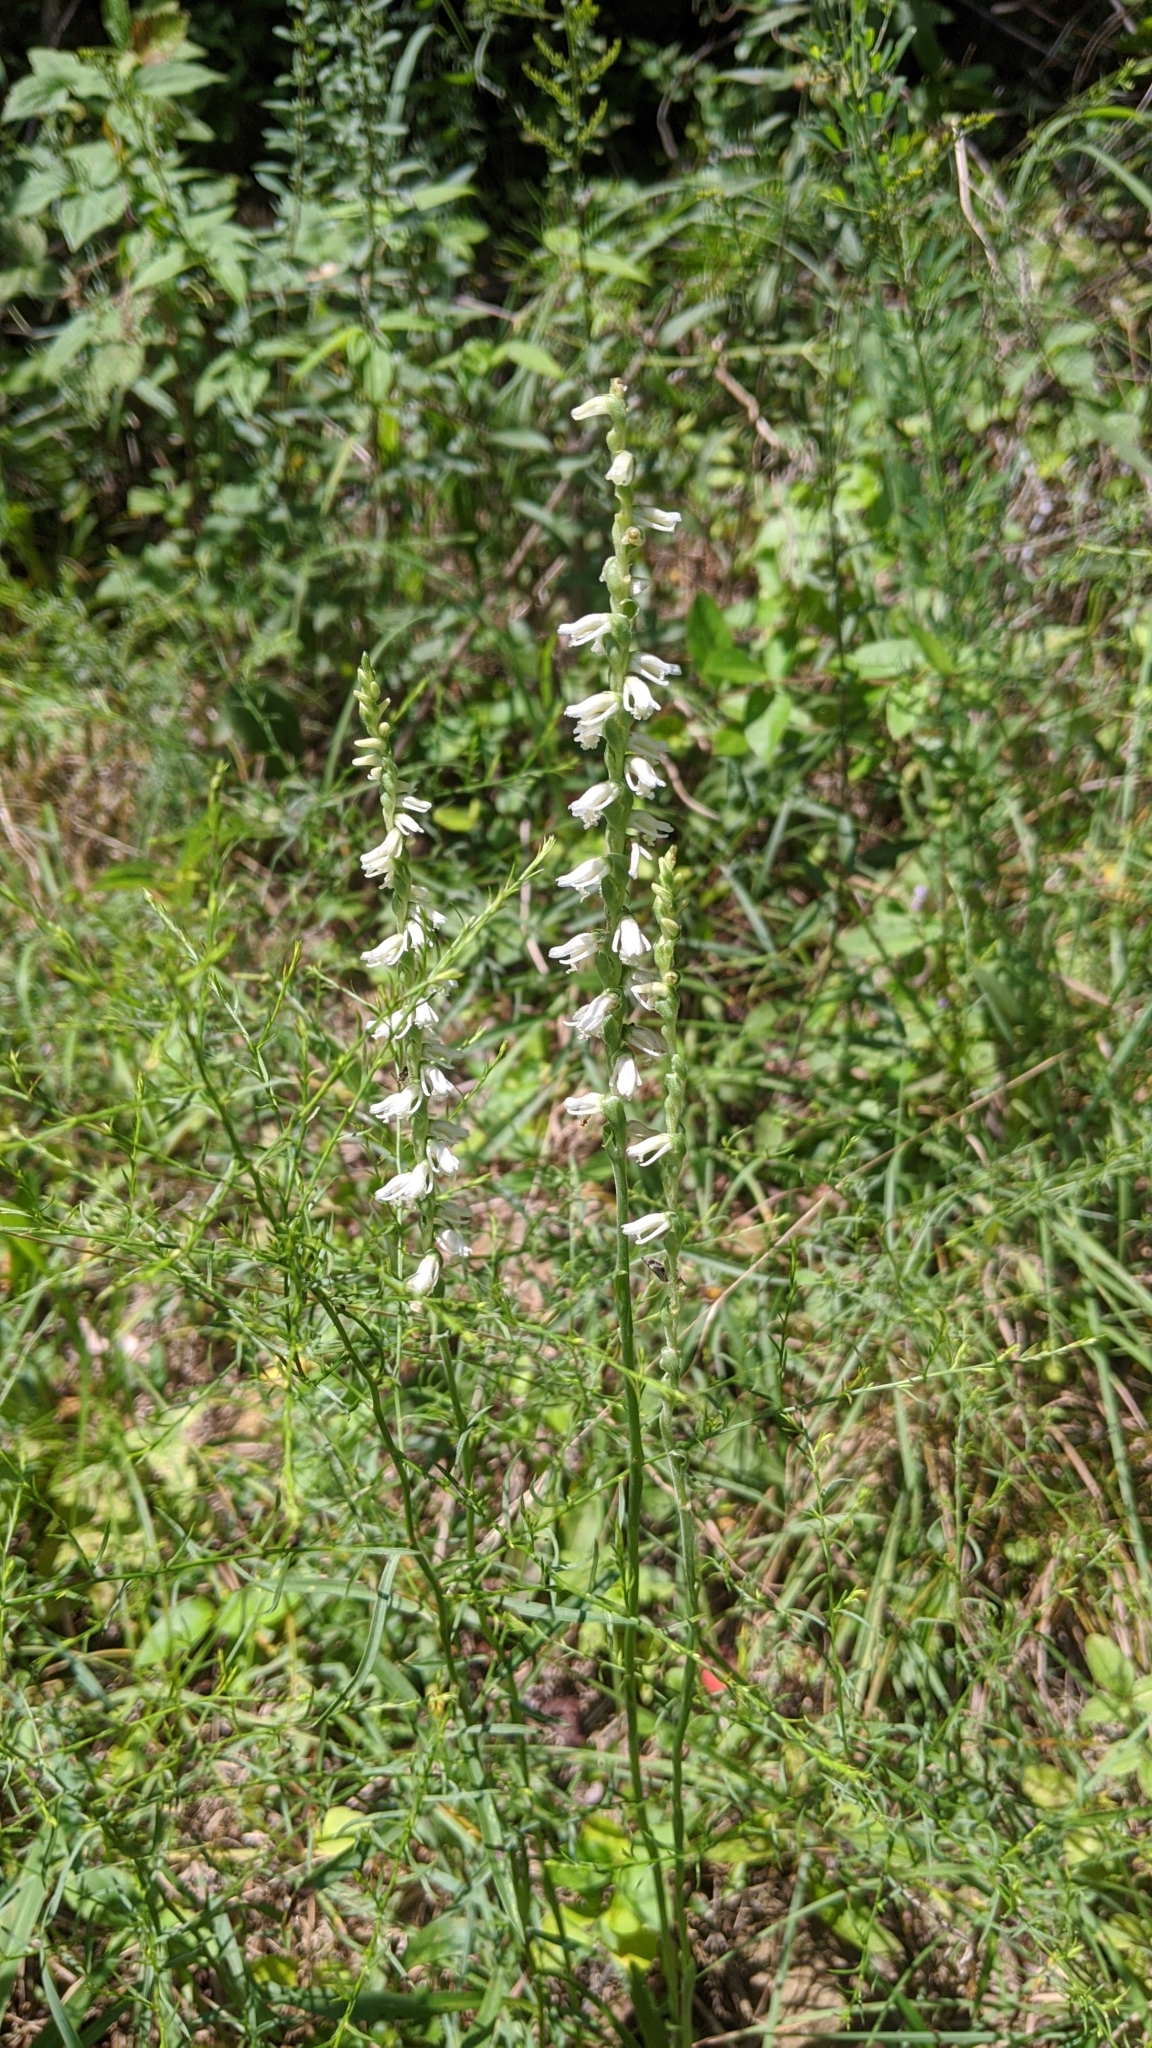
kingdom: Plantae
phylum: Tracheophyta
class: Liliopsida
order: Asparagales
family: Orchidaceae
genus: Spiranthes
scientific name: Spiranthes lacera
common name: Northern slender ladies'-tresses
